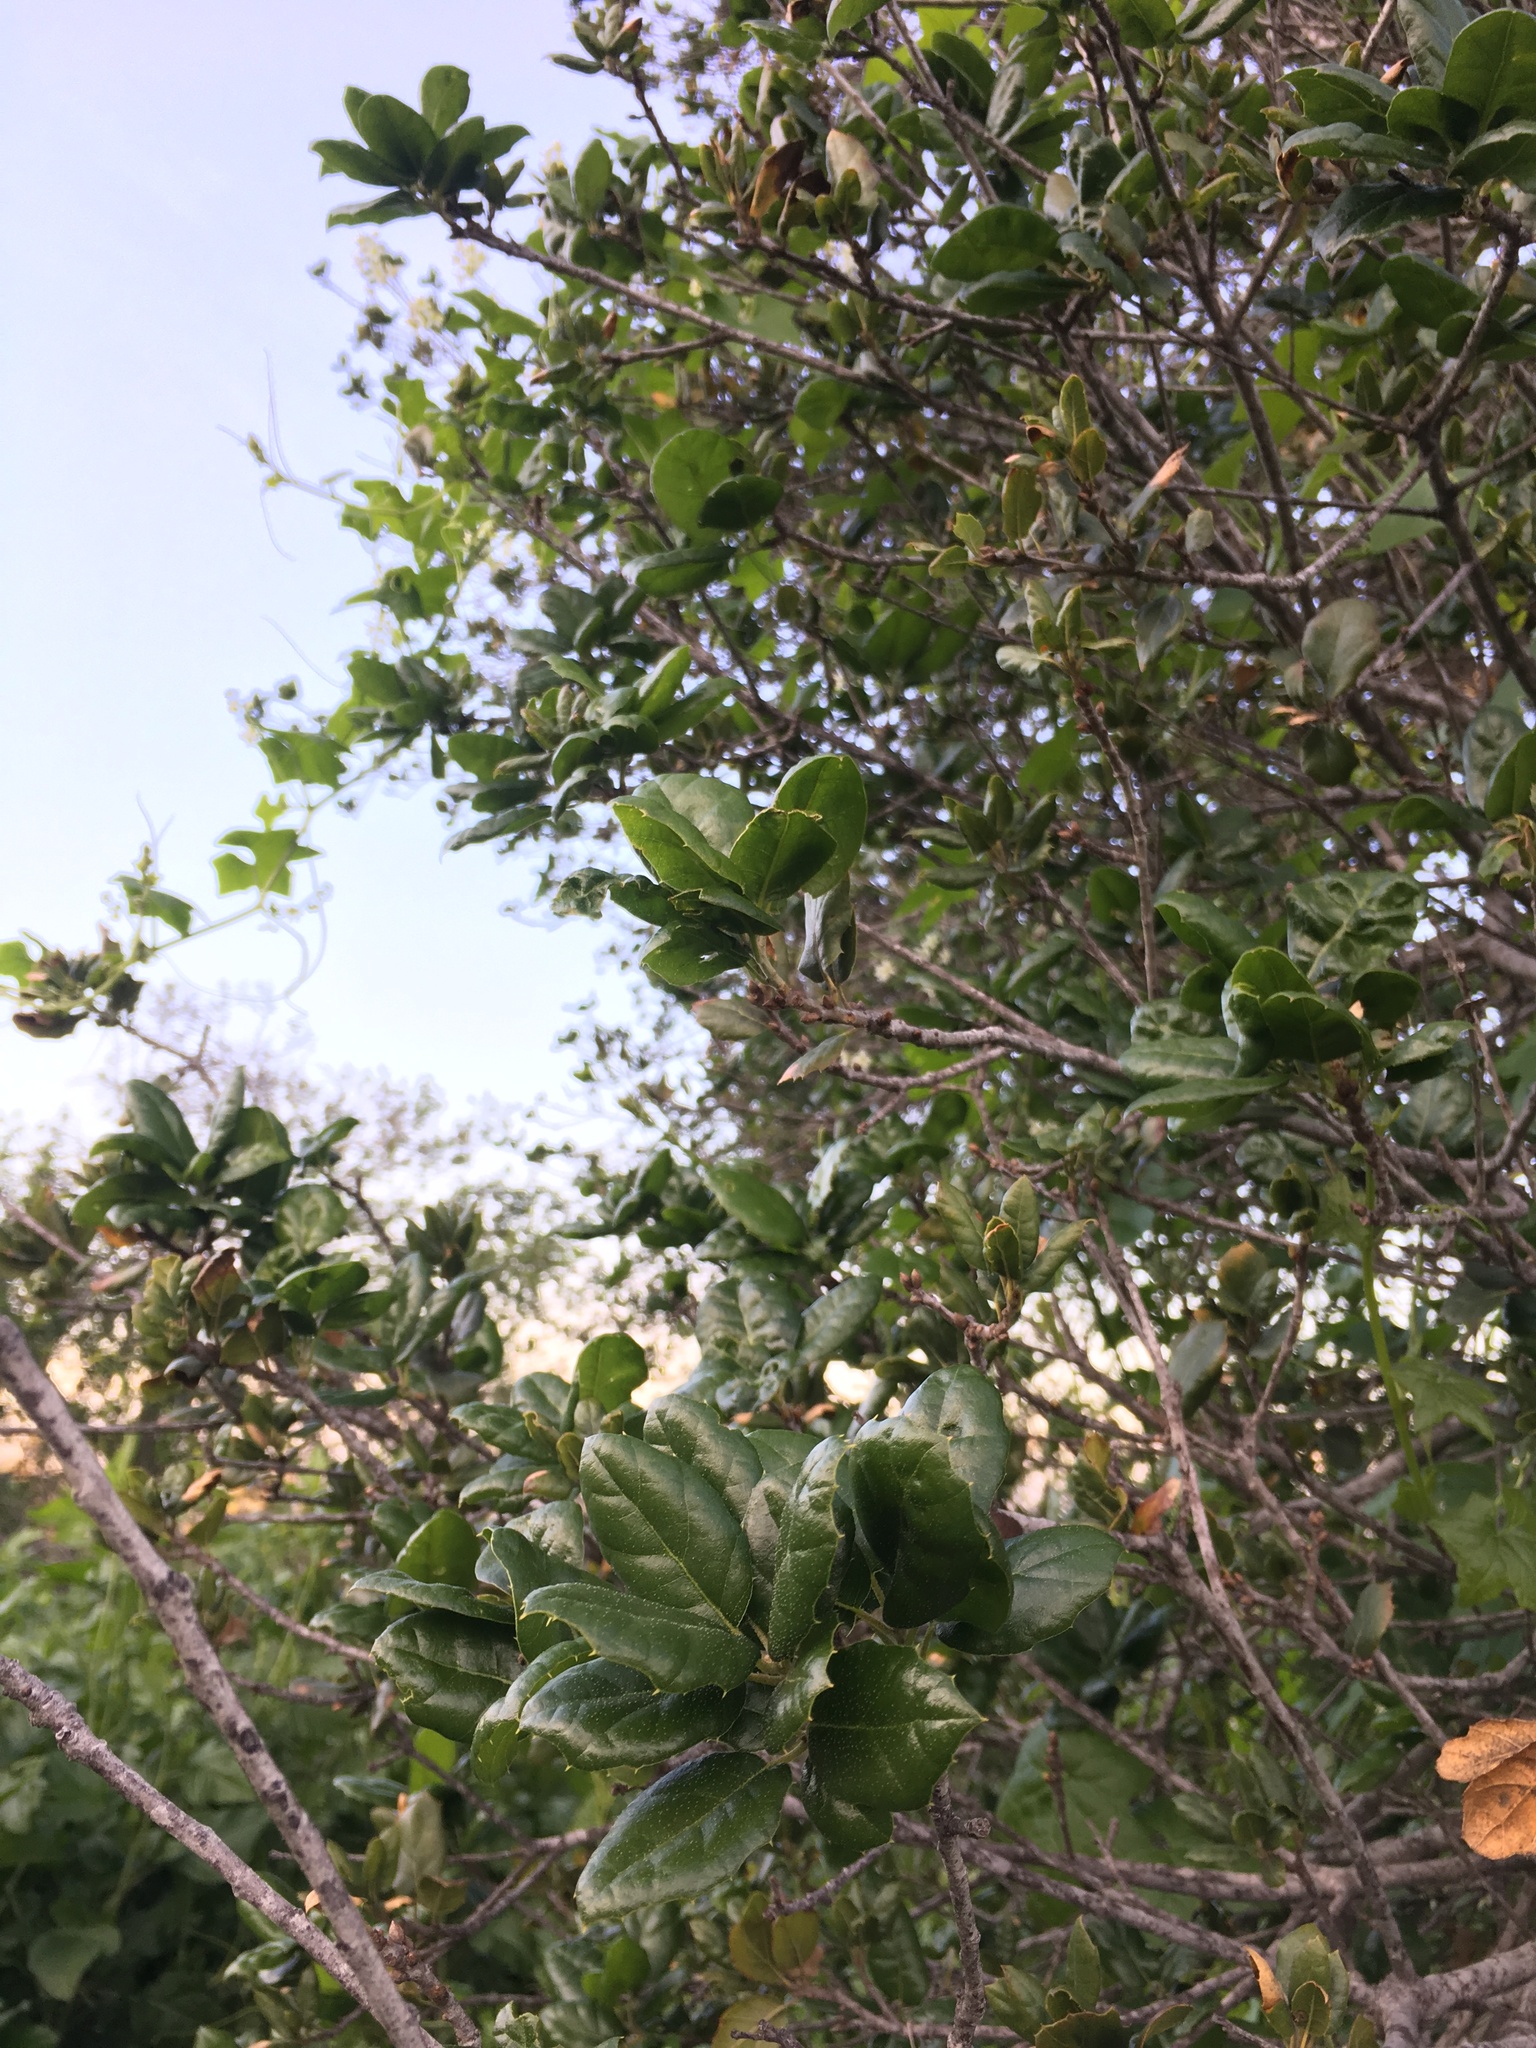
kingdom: Plantae
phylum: Tracheophyta
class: Magnoliopsida
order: Fagales
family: Fagaceae
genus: Quercus
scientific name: Quercus agrifolia
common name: California live oak
